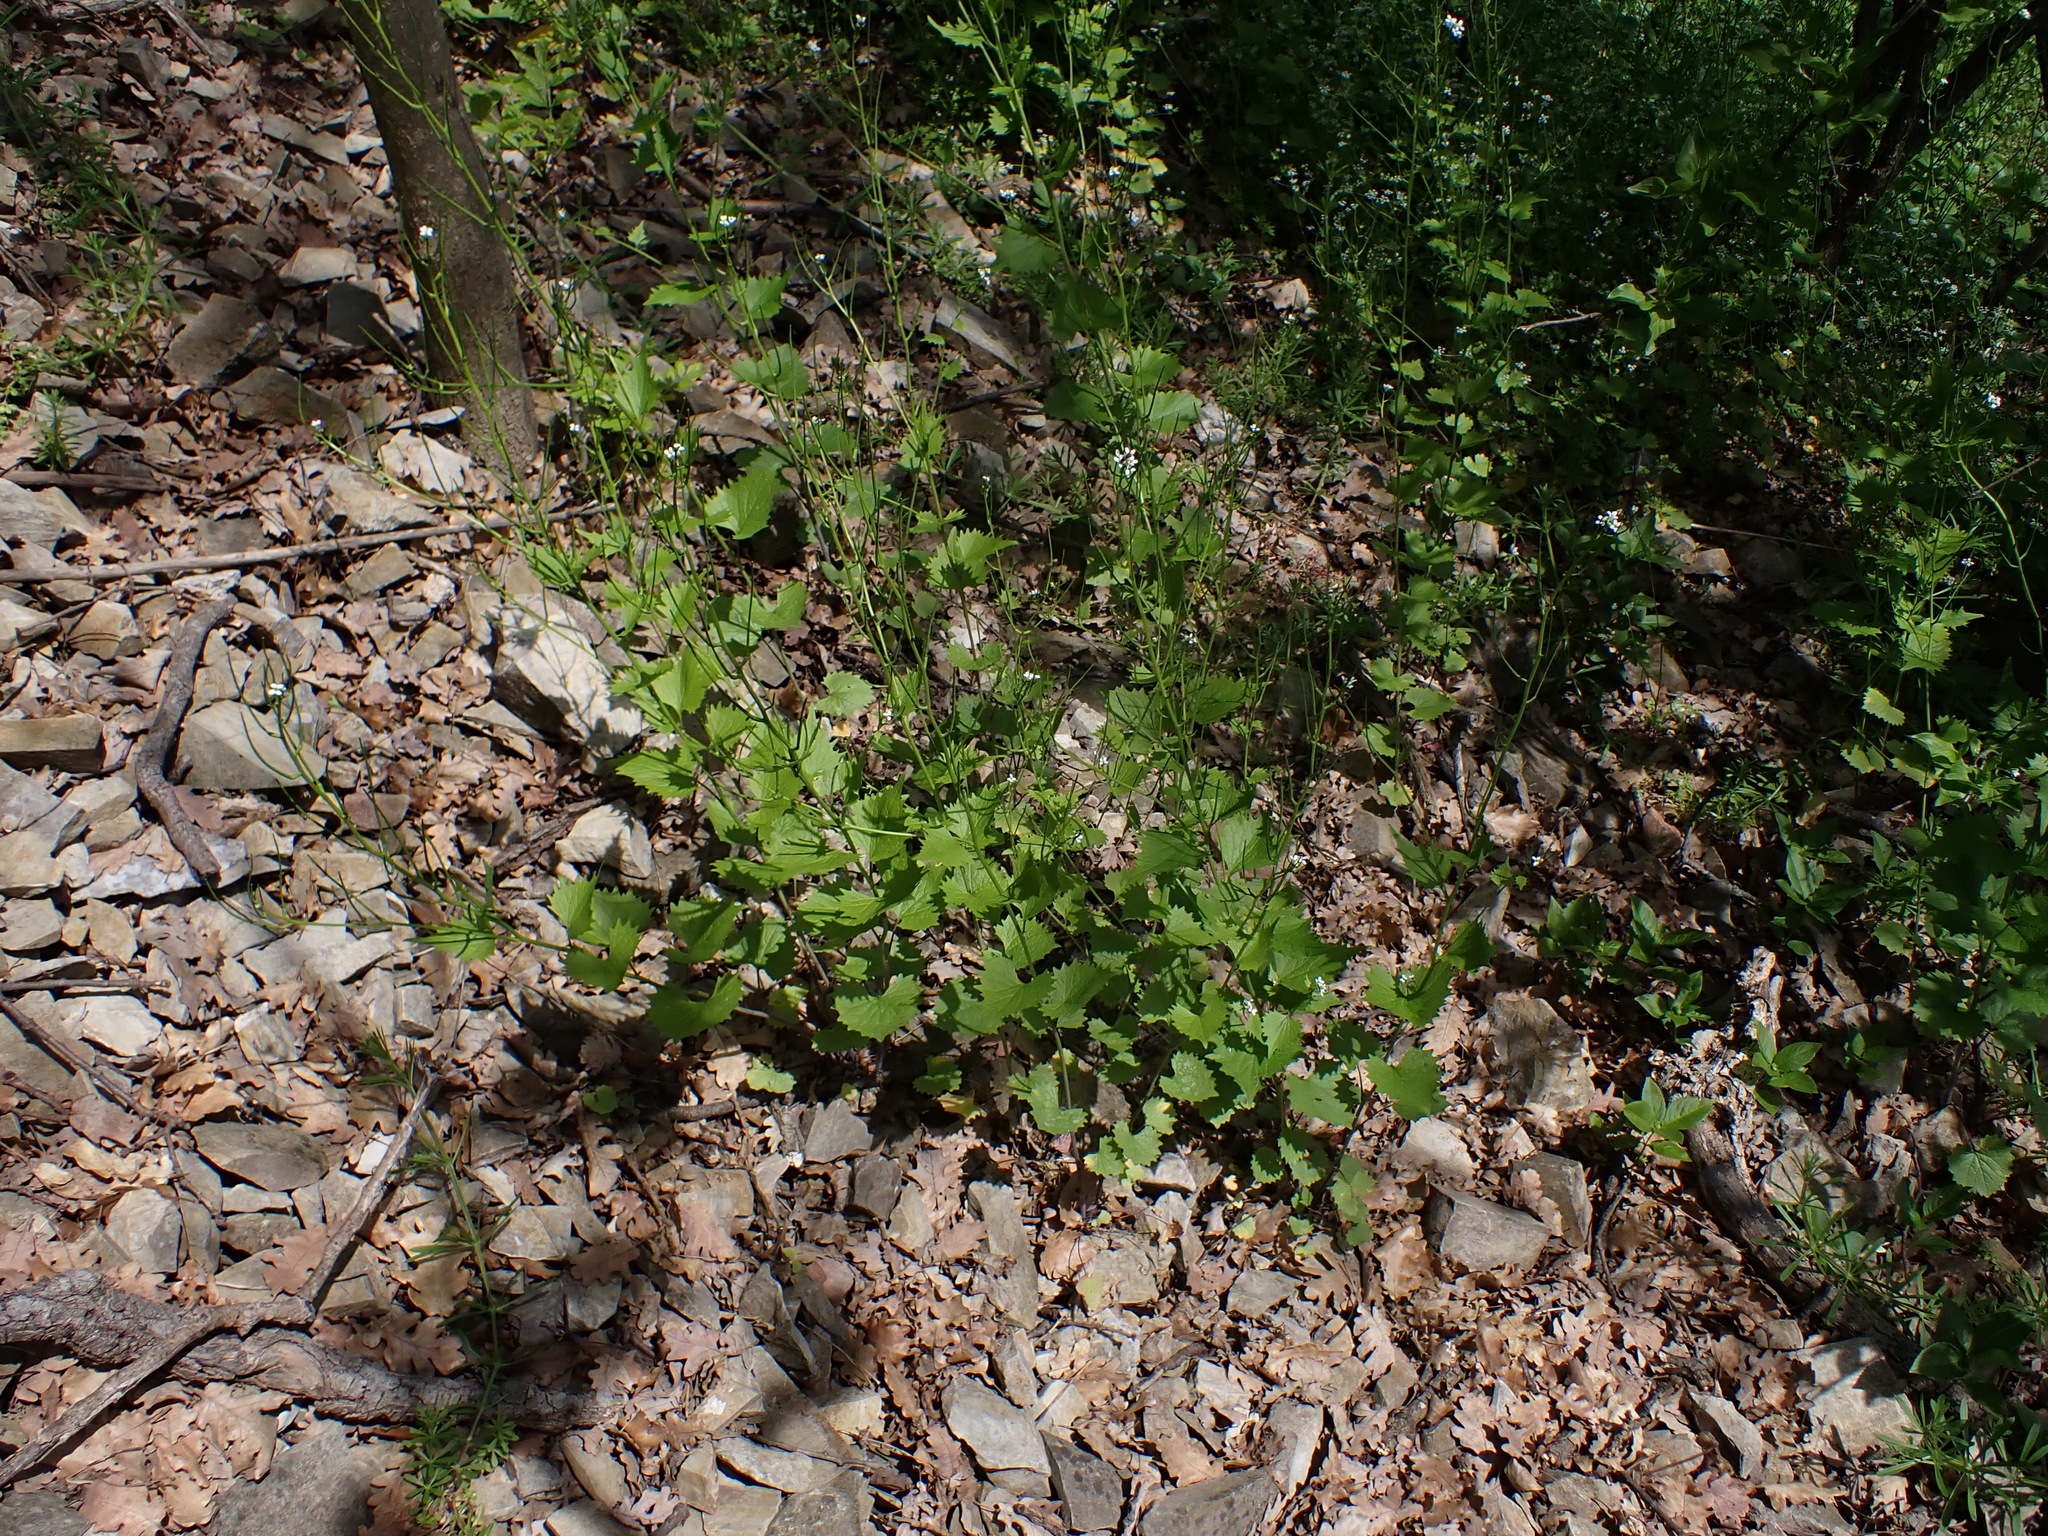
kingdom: Plantae
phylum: Tracheophyta
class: Magnoliopsida
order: Brassicales
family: Brassicaceae
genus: Alliaria
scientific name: Alliaria petiolata
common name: Garlic mustard
